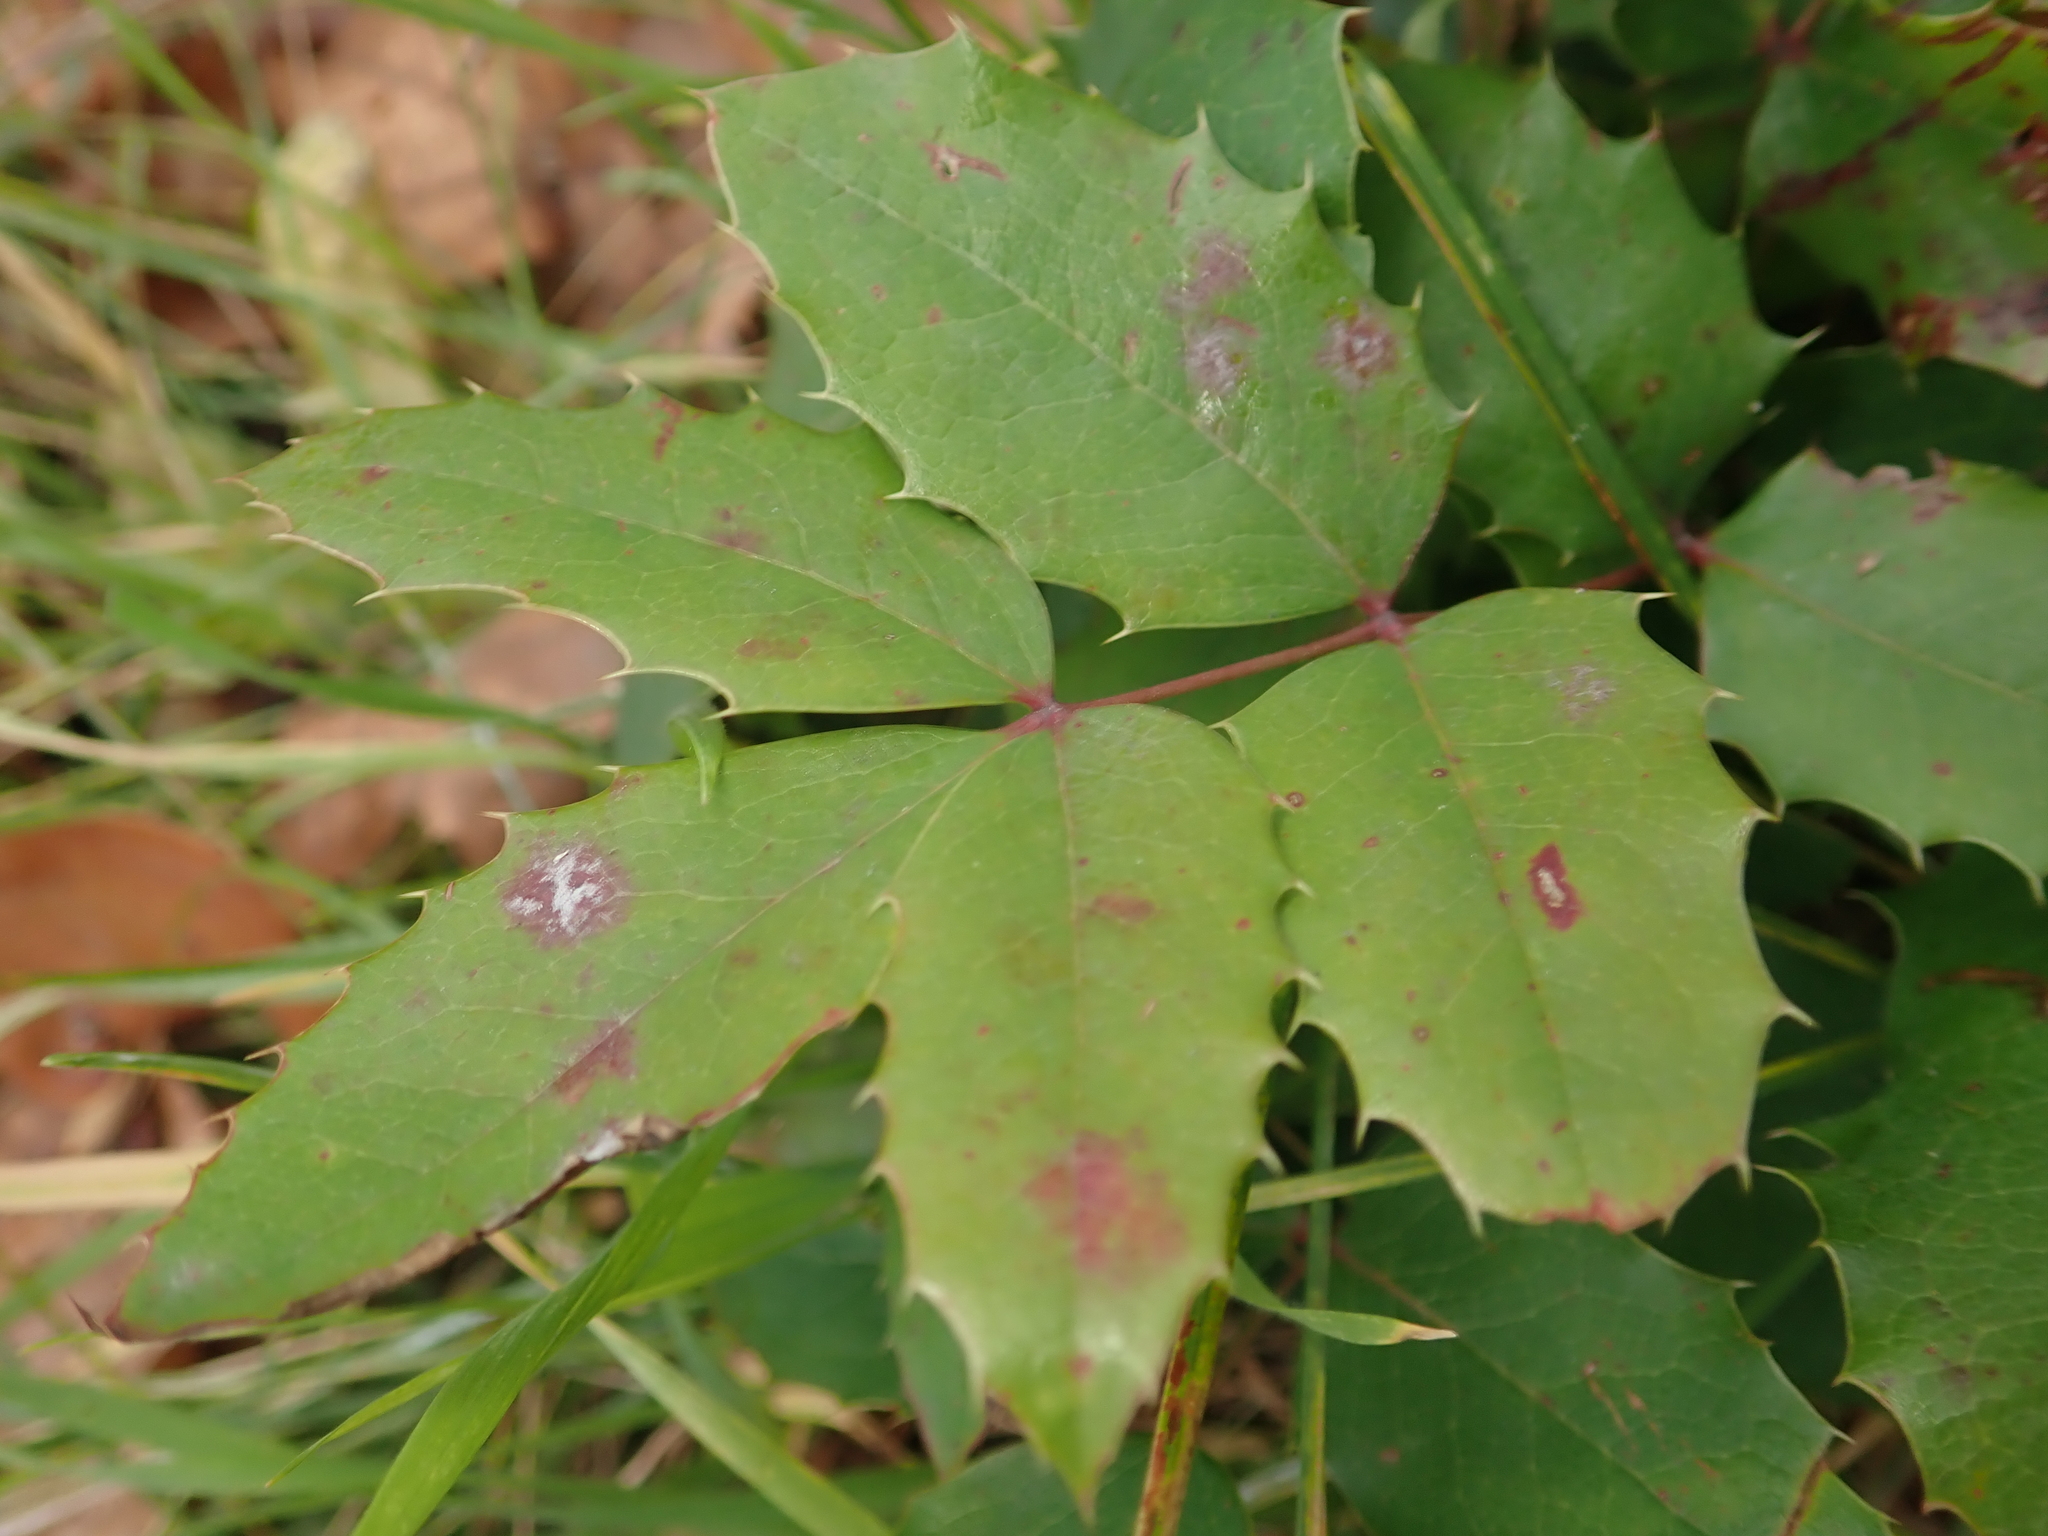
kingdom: Plantae
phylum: Tracheophyta
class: Magnoliopsida
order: Ranunculales
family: Berberidaceae
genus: Mahonia
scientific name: Mahonia aquifolium
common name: Oregon-grape
